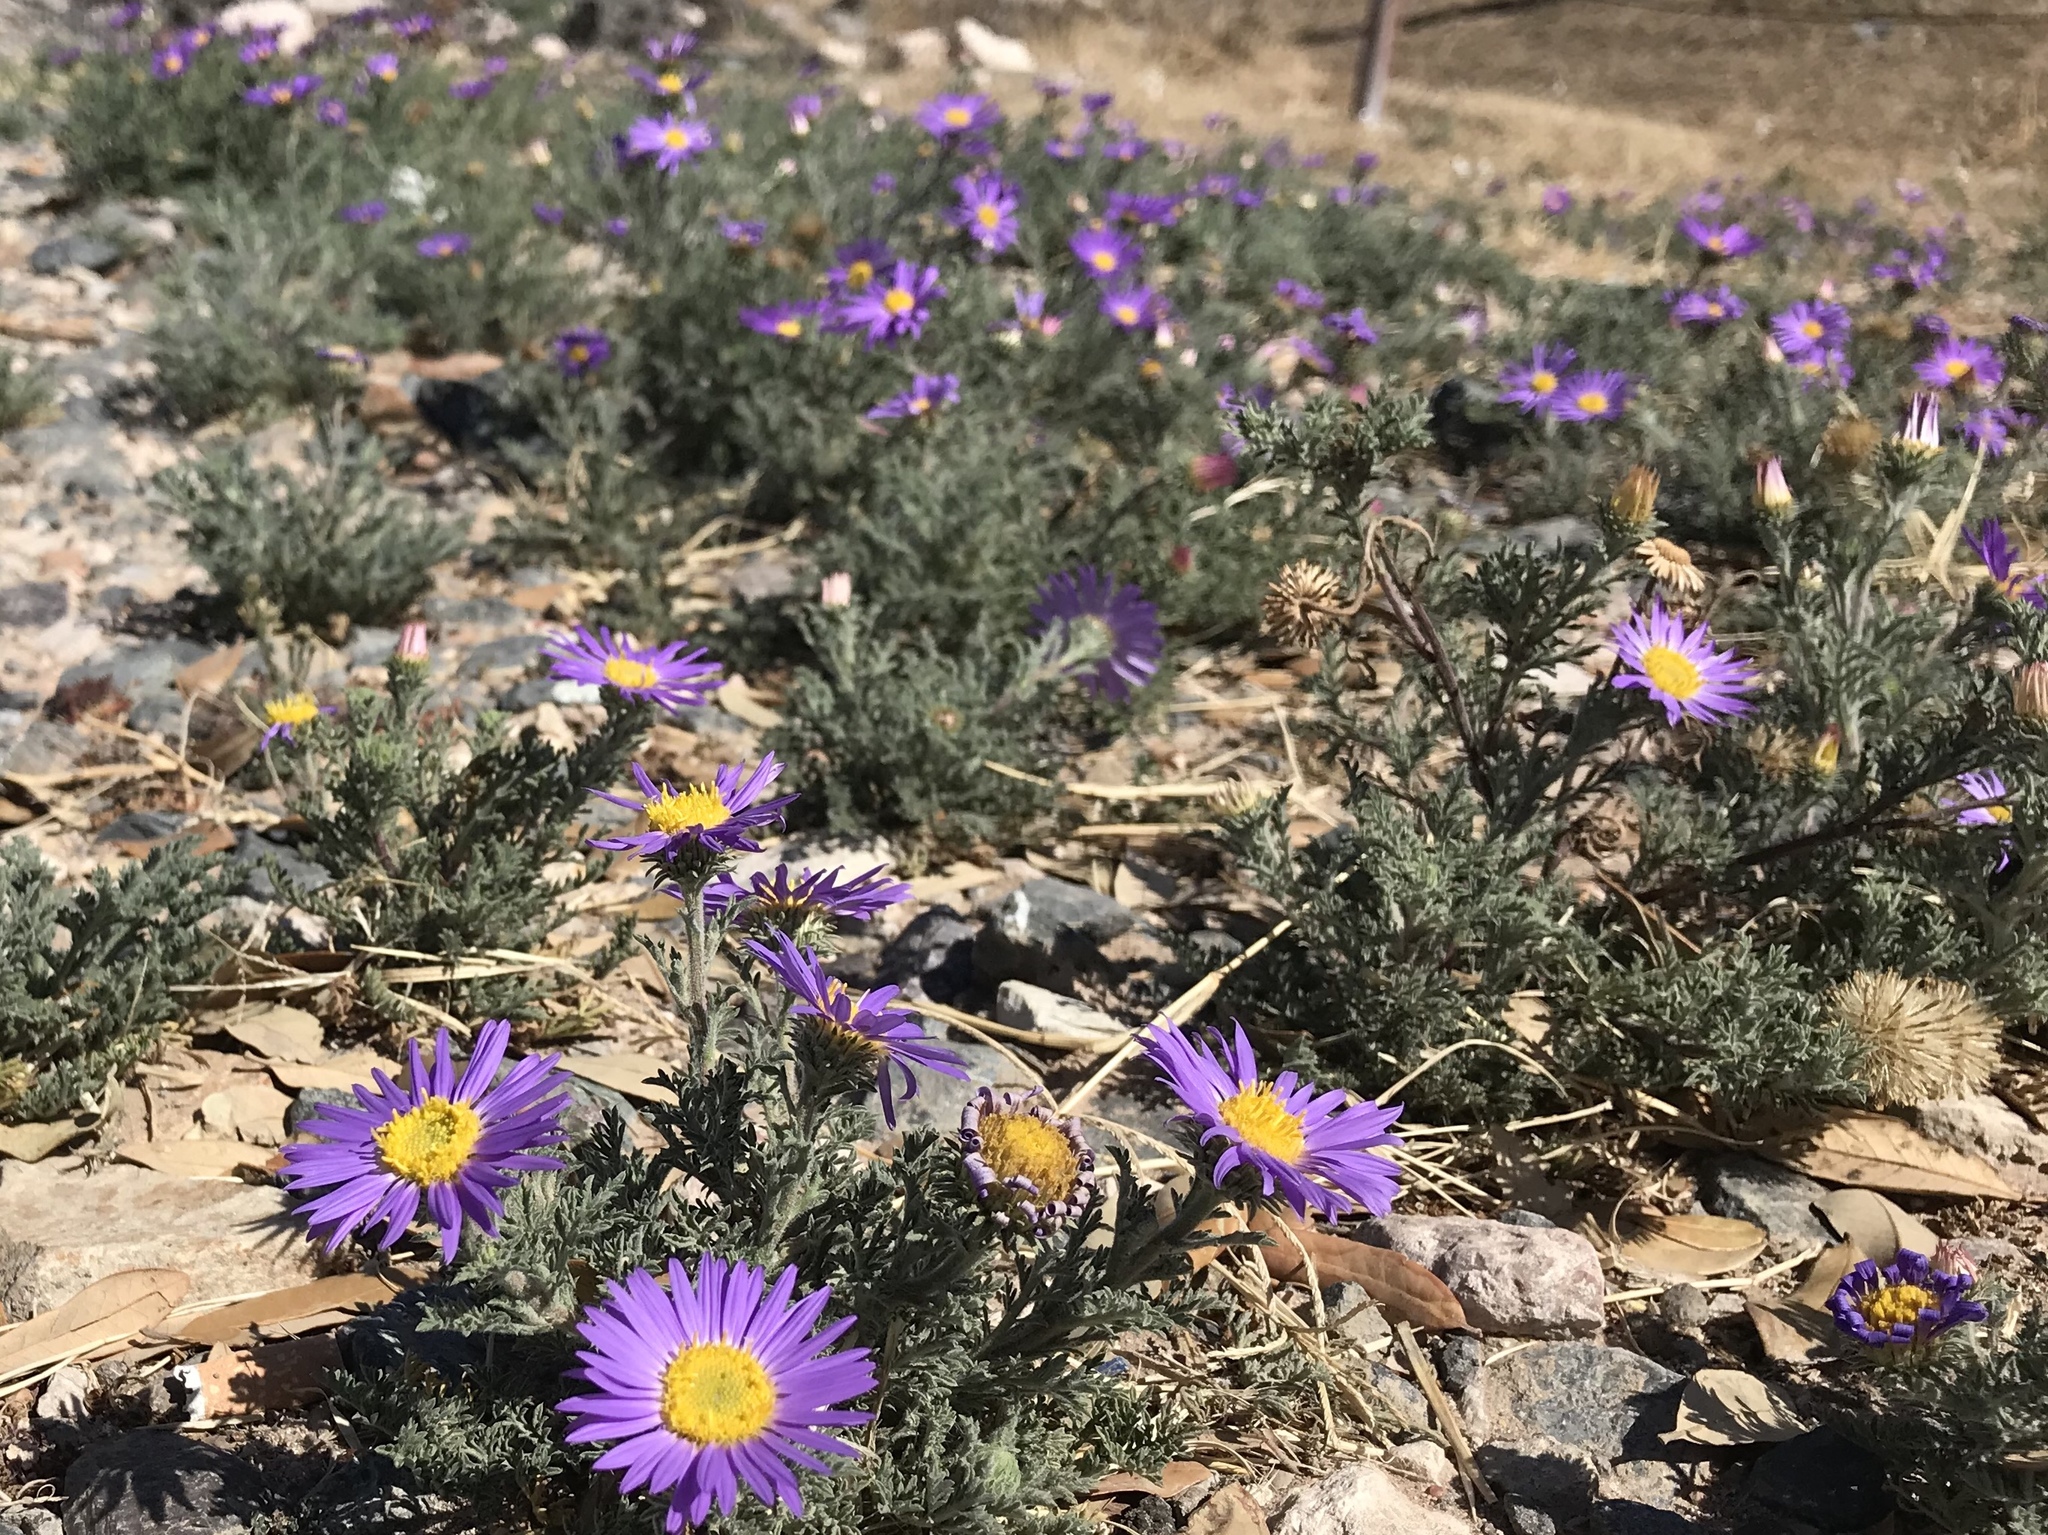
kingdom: Plantae
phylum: Tracheophyta
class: Magnoliopsida
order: Asterales
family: Asteraceae
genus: Machaeranthera
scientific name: Machaeranthera tanacetifolia
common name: Tansy-aster
